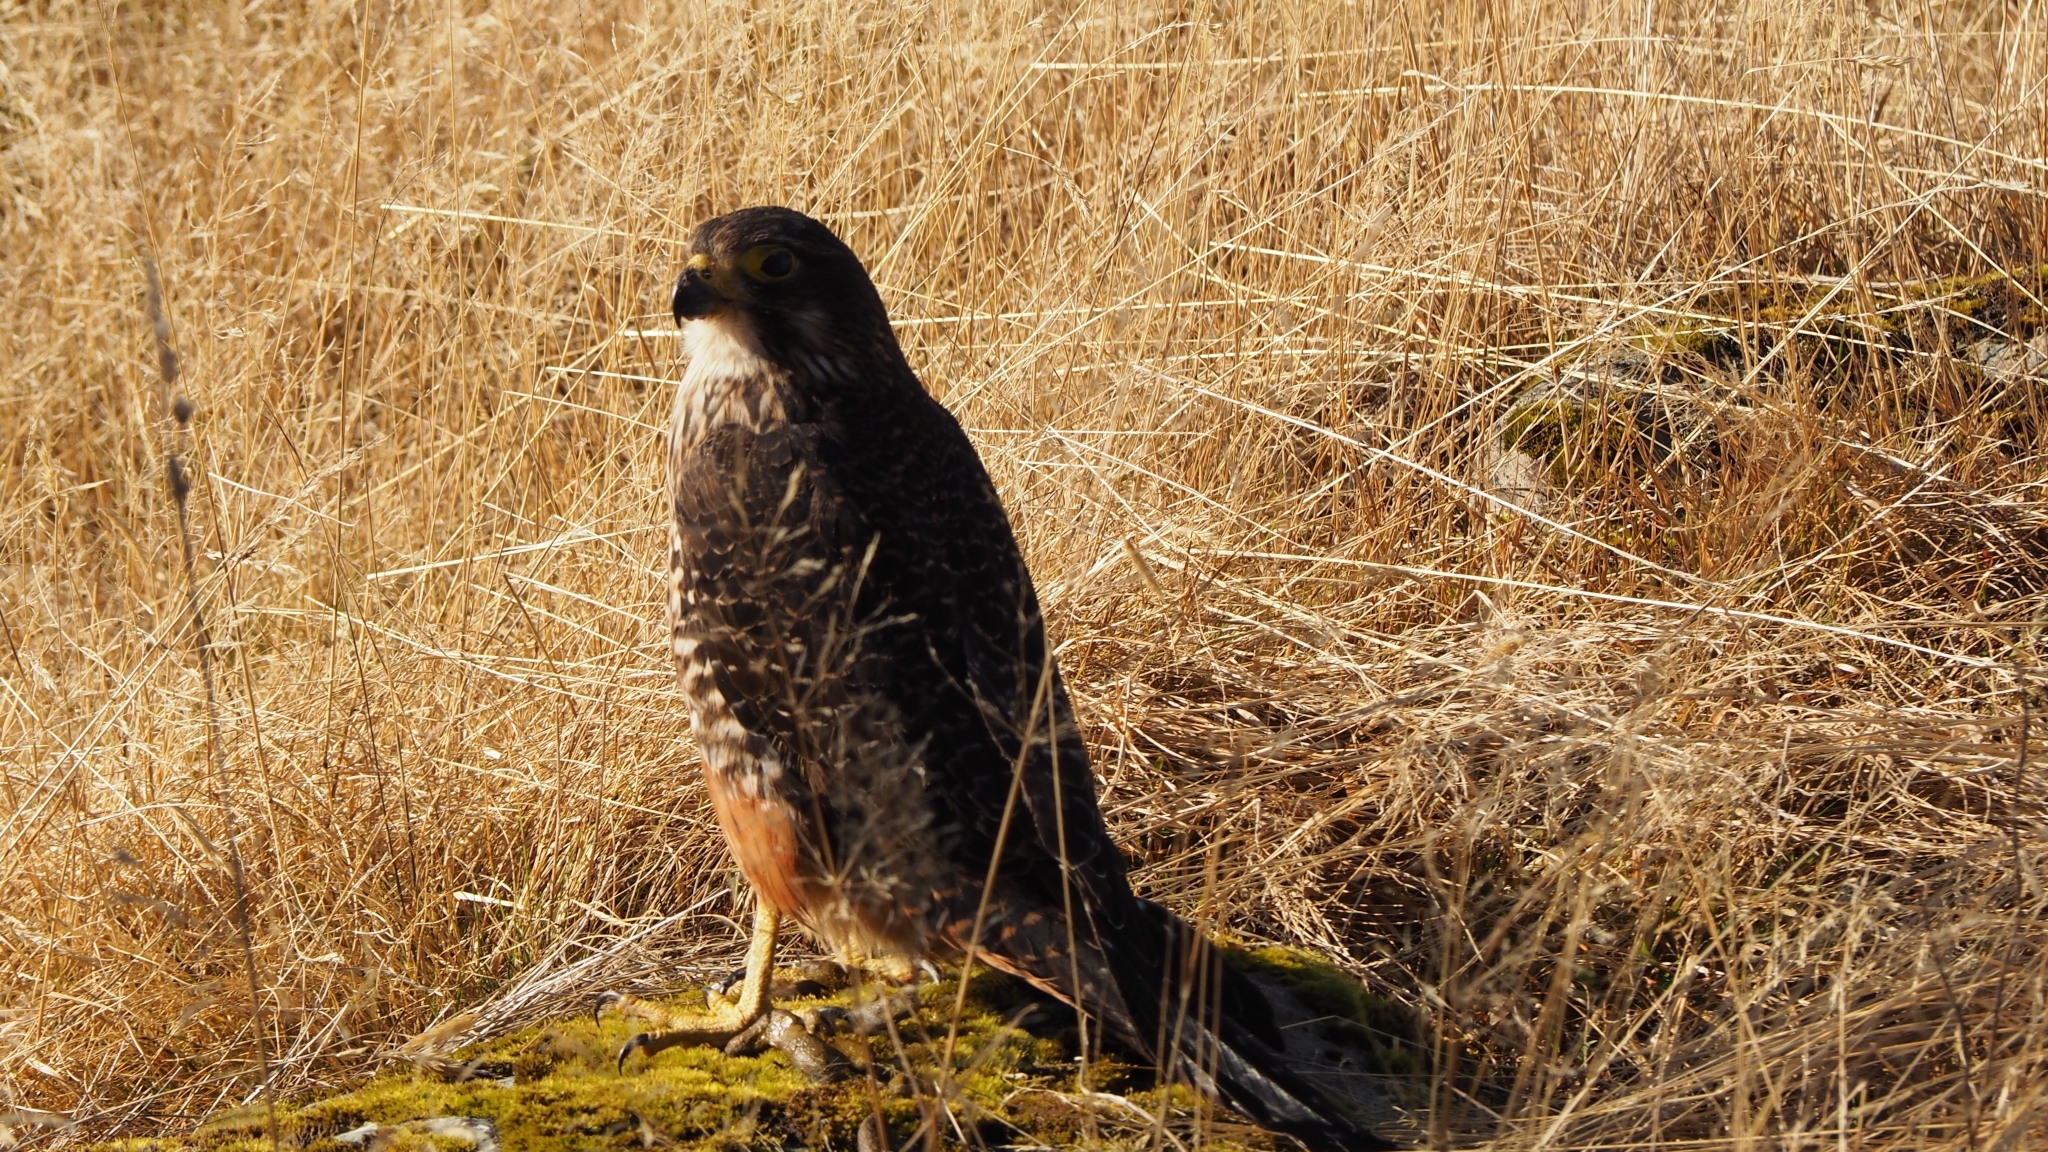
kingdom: Animalia
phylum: Chordata
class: Aves
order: Falconiformes
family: Falconidae
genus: Falco
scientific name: Falco novaeseelandiae
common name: New zealand falcon
